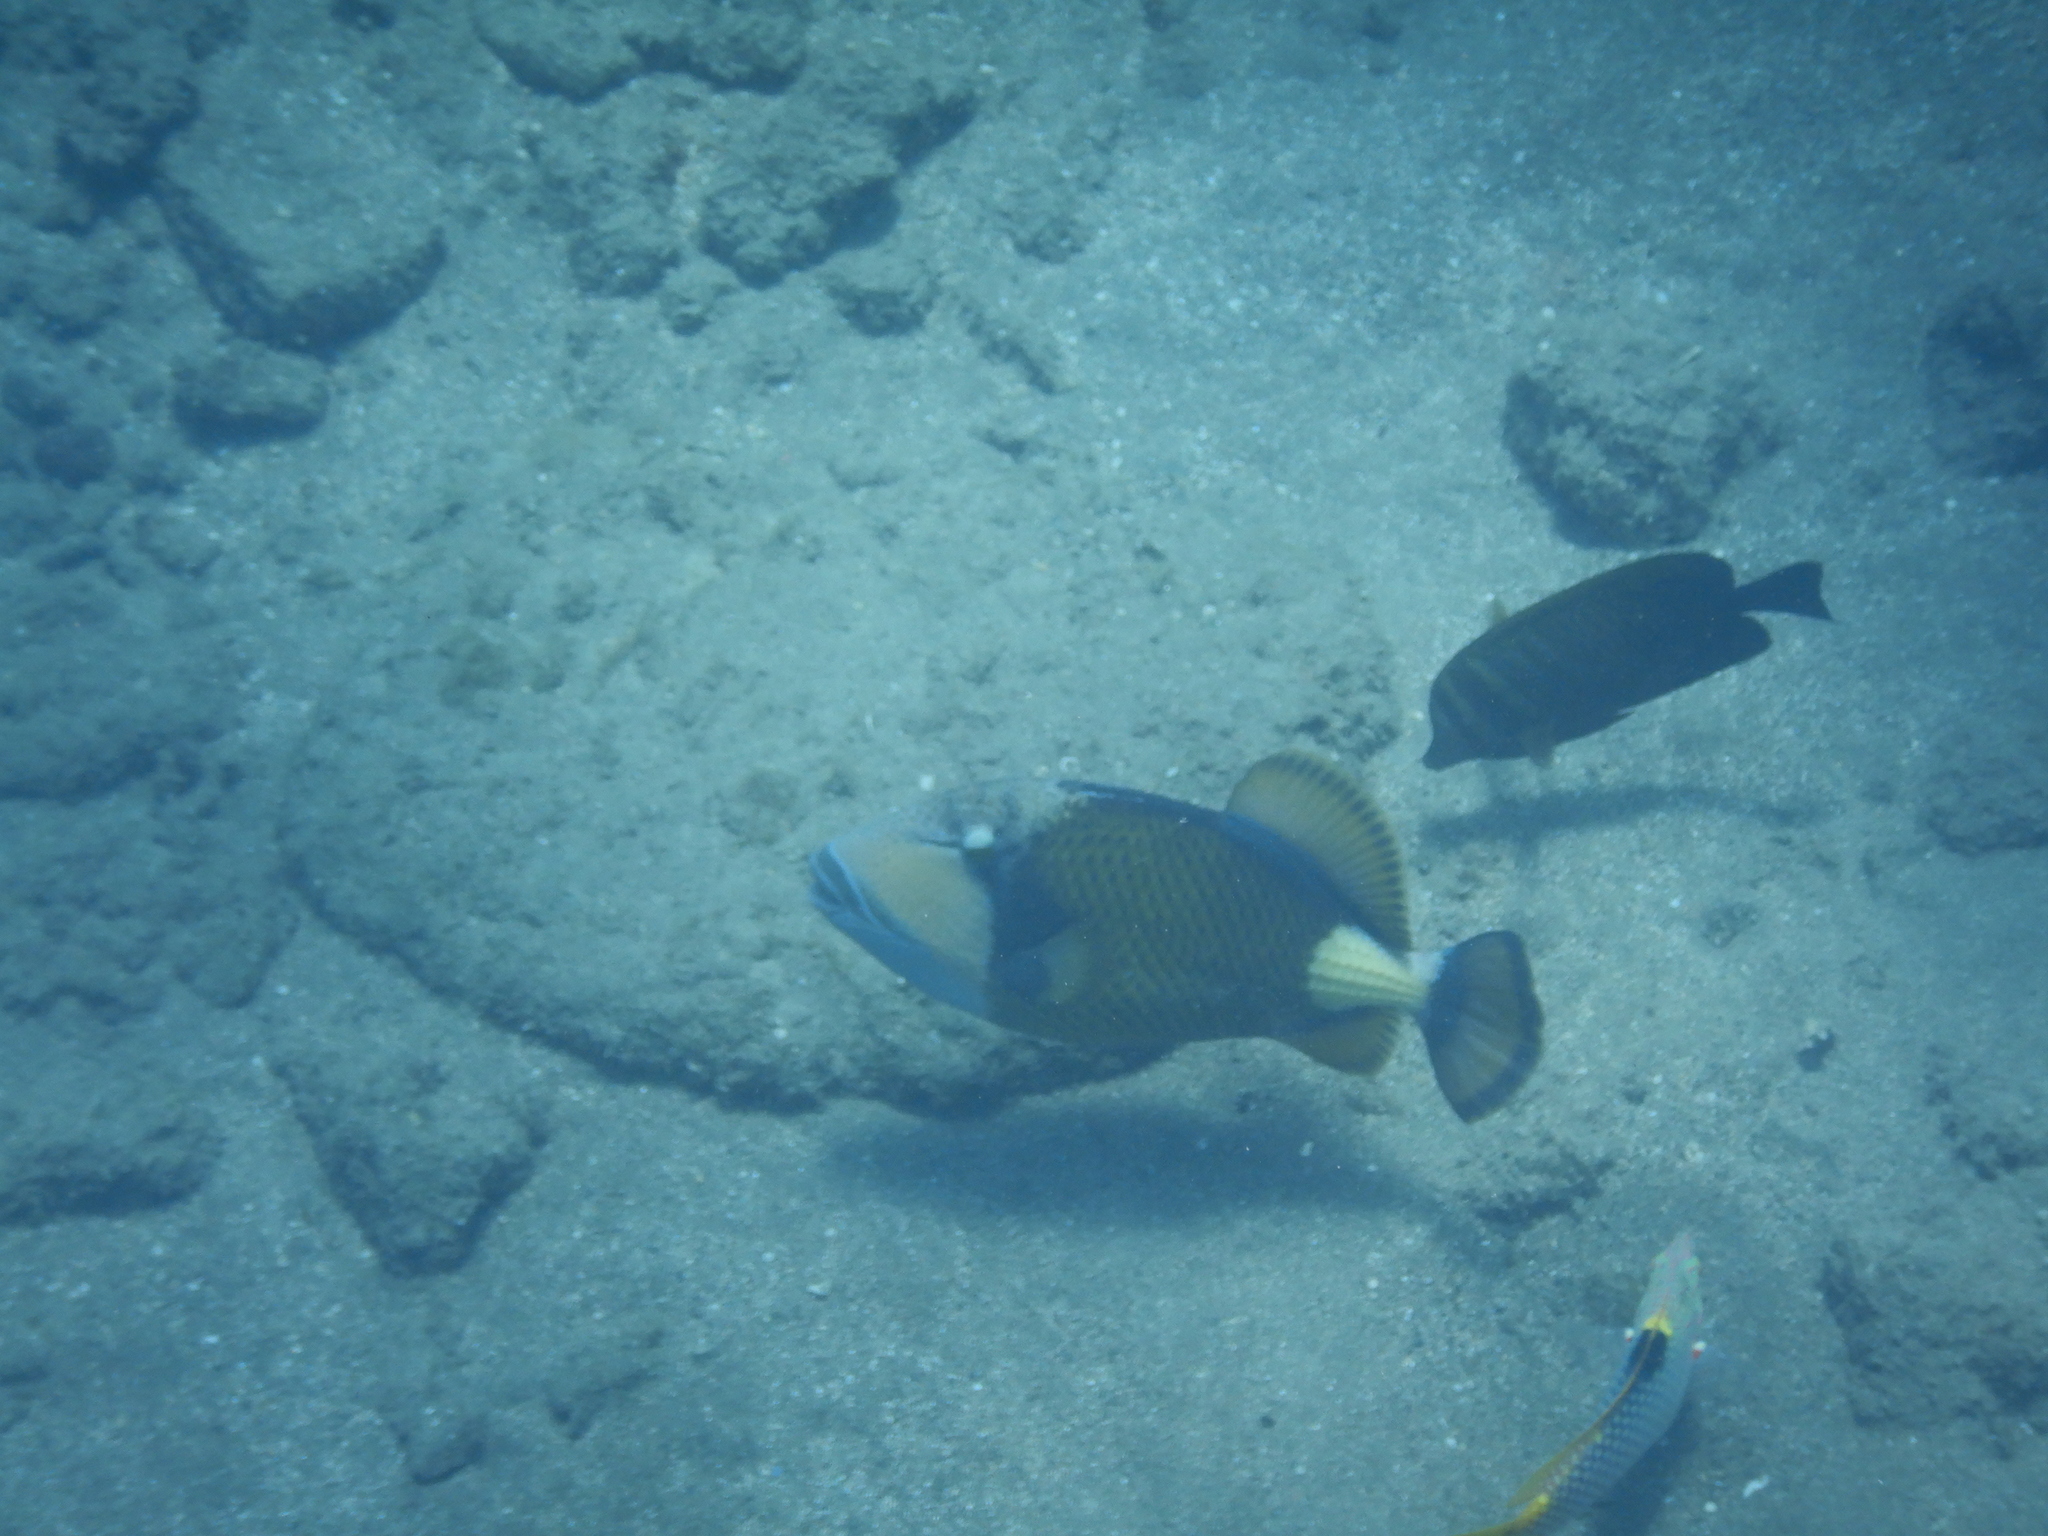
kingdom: Animalia
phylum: Chordata
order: Tetraodontiformes
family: Balistidae
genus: Balistoides
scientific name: Balistoides viridescens
